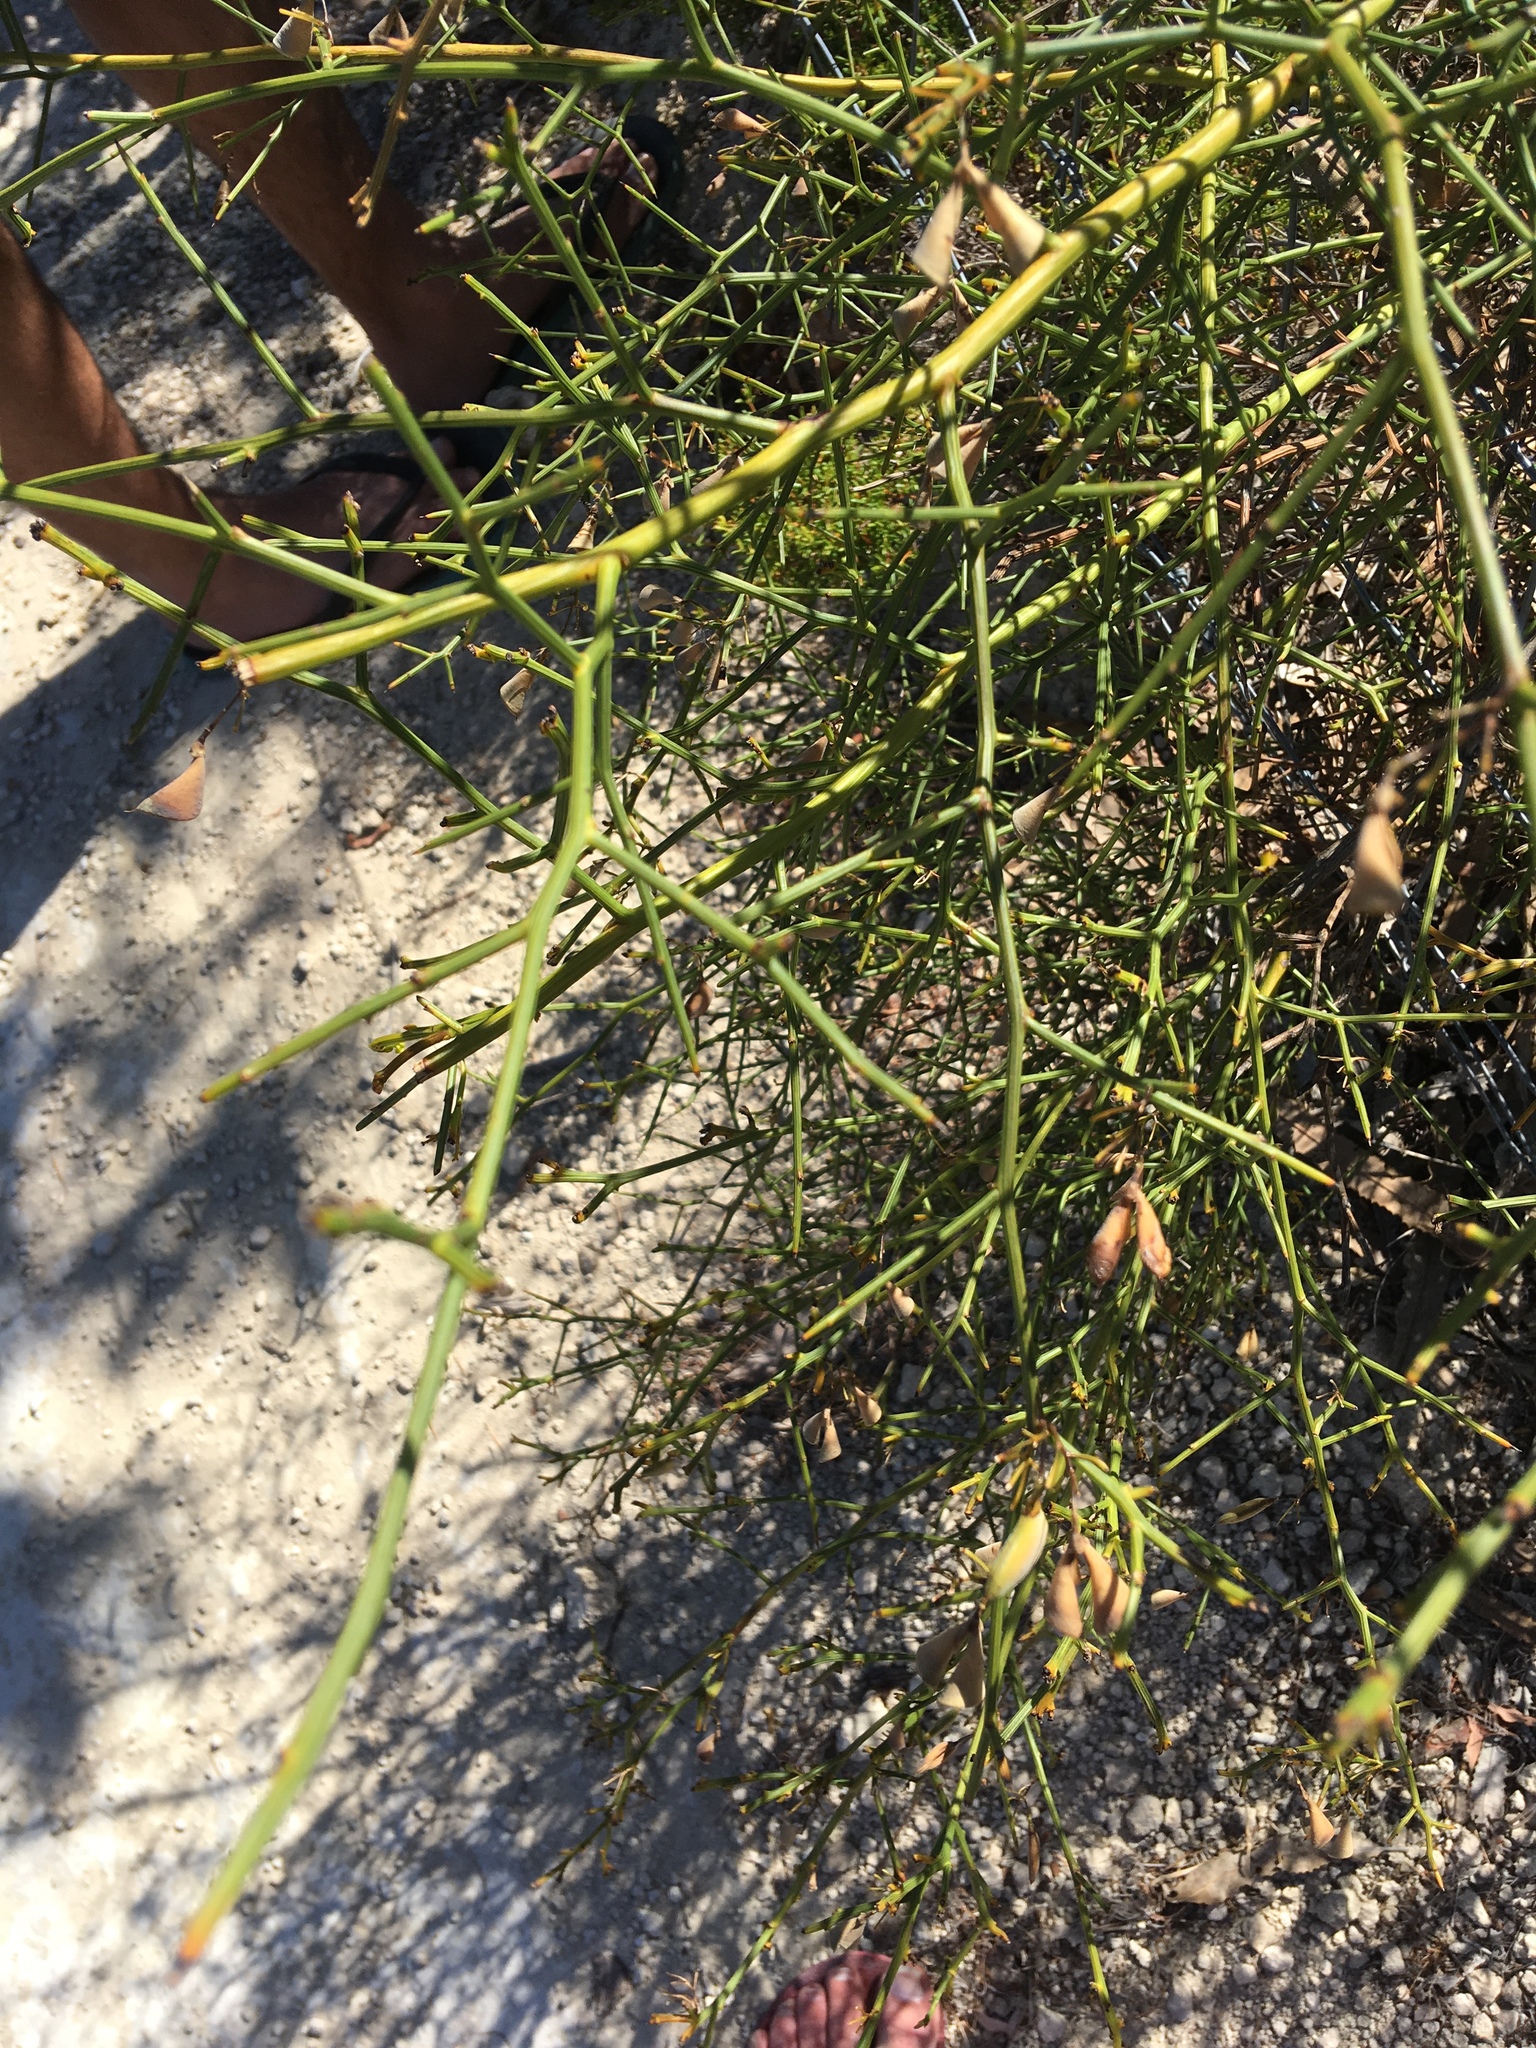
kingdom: Plantae
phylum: Tracheophyta
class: Magnoliopsida
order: Fabales
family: Fabaceae
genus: Daviesia
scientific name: Daviesia divaricata
